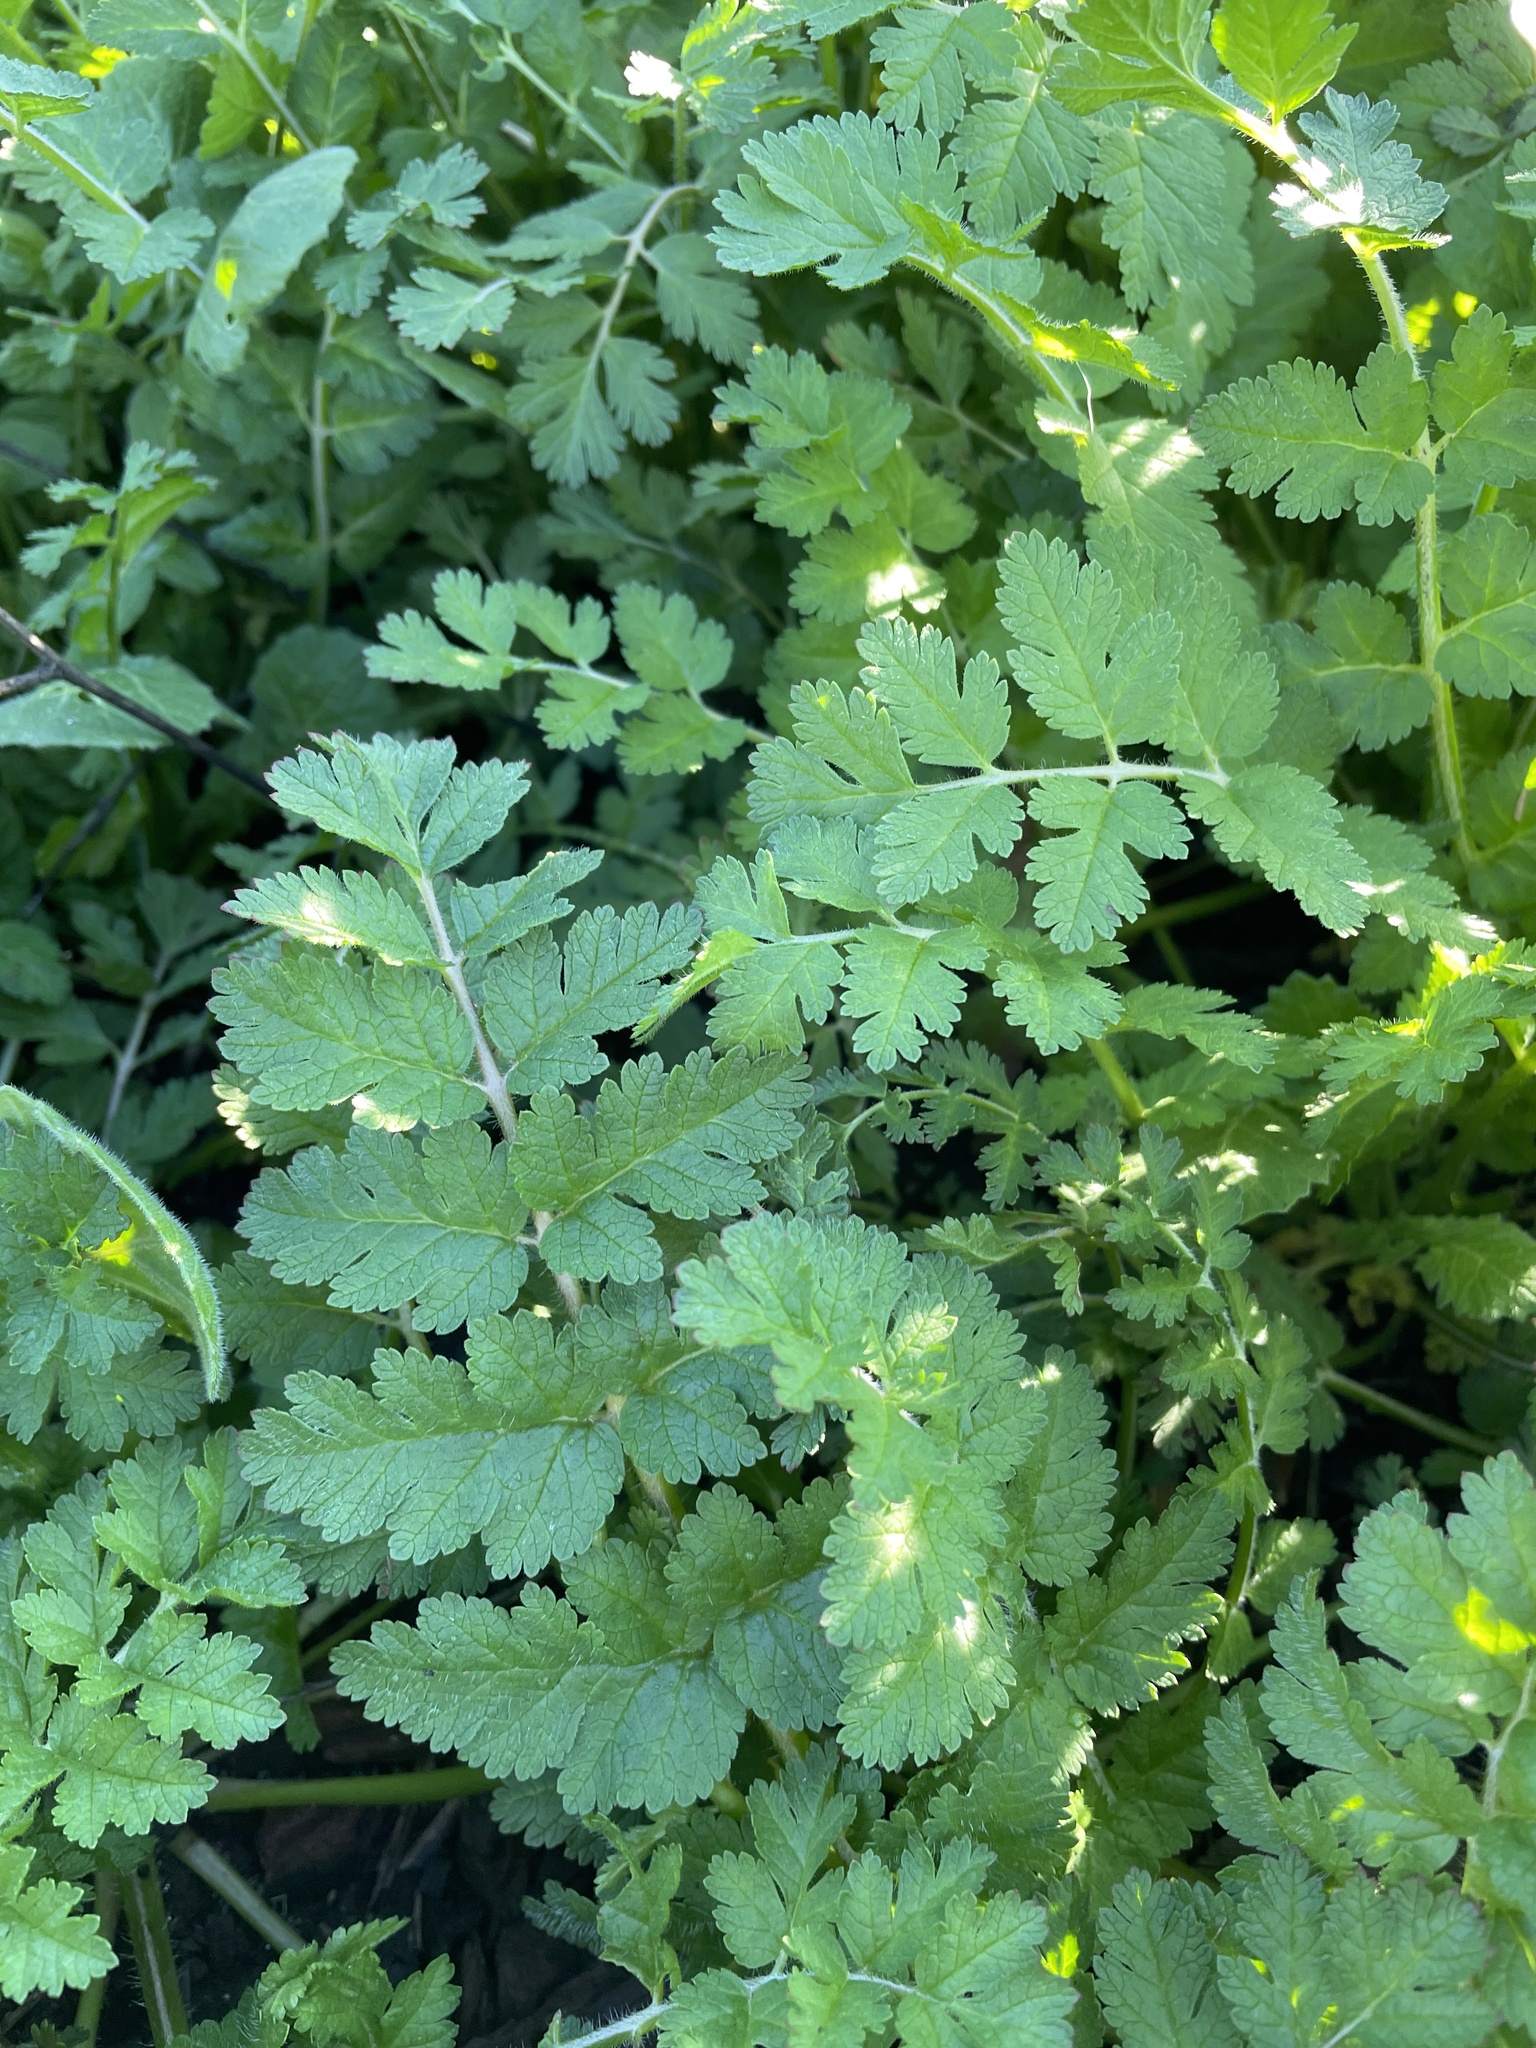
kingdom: Plantae
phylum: Tracheophyta
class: Magnoliopsida
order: Geraniales
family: Geraniaceae
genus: Erodium
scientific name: Erodium moschatum
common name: Musk stork's-bill
